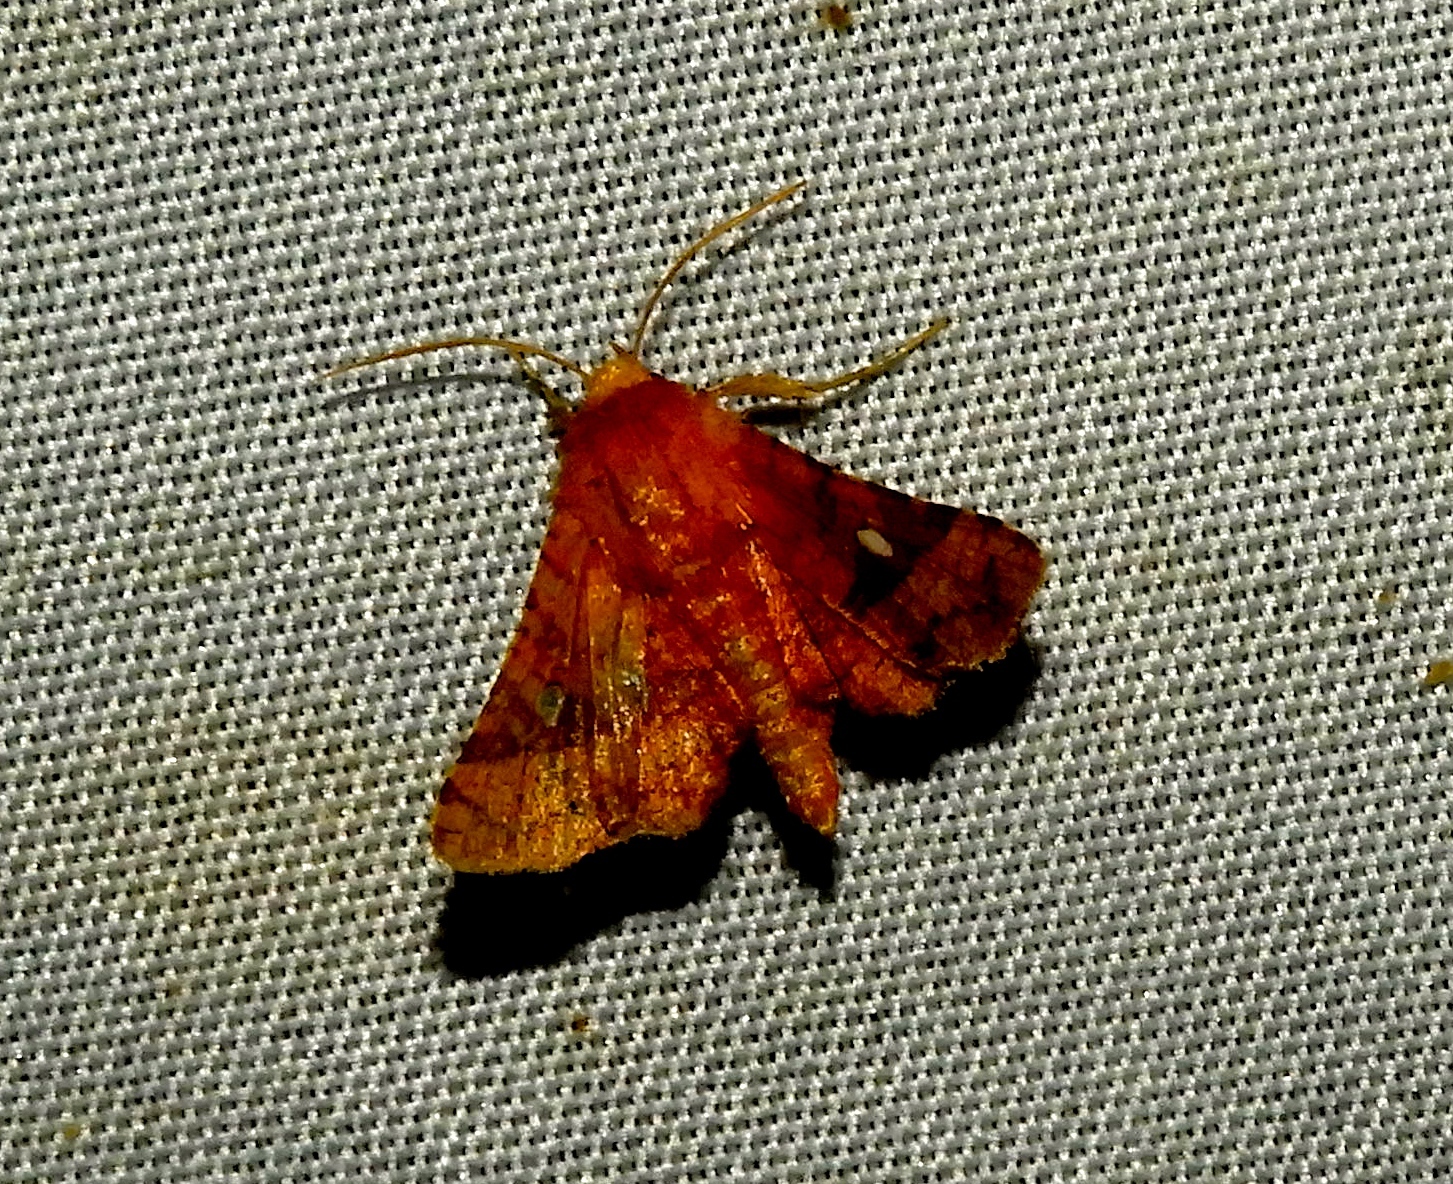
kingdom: Animalia
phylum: Arthropoda
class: Insecta
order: Lepidoptera
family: Thyrididae
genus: Dysodia
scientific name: Dysodia
